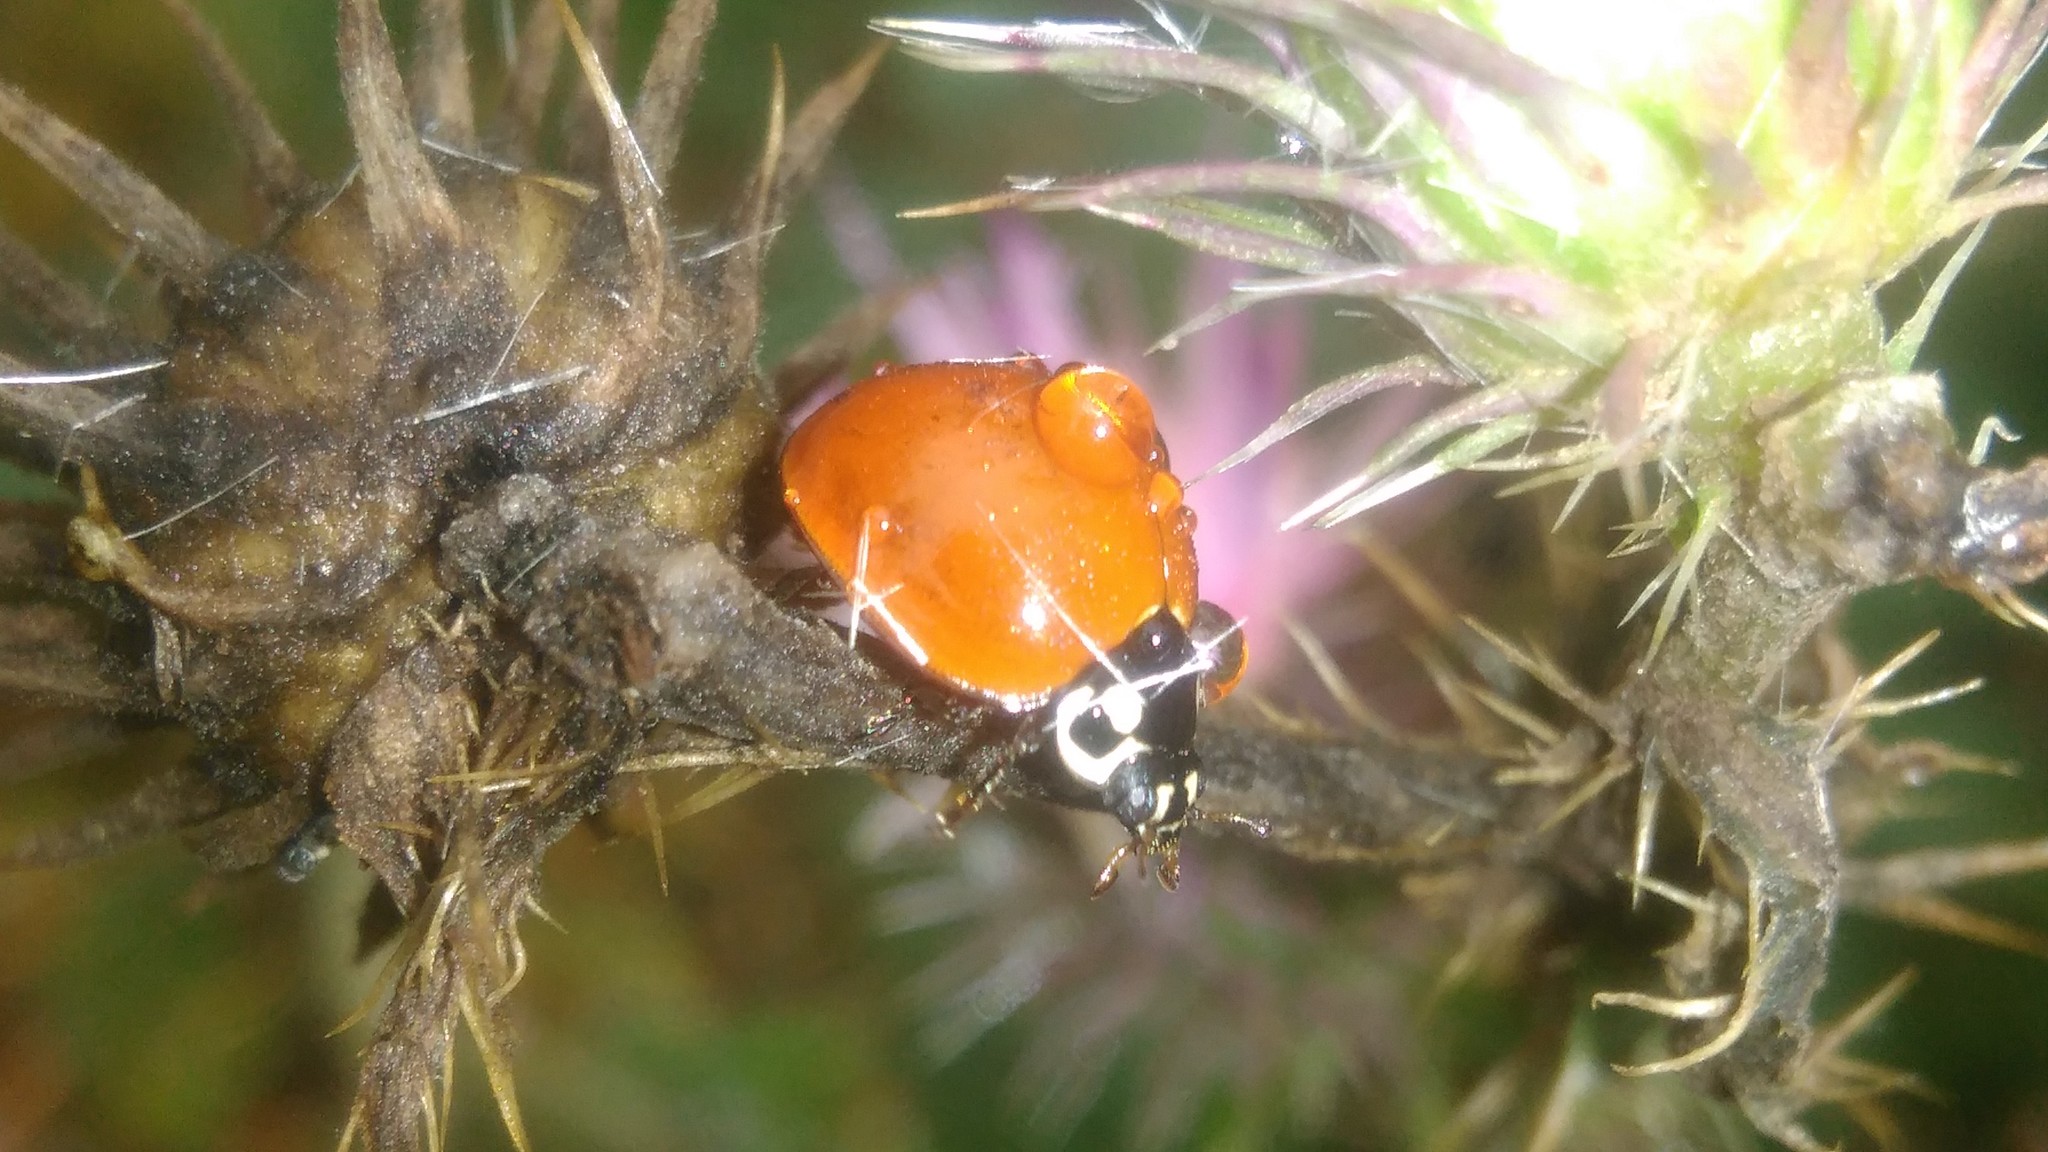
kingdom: Animalia
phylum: Arthropoda
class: Insecta
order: Coleoptera
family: Coccinellidae
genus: Cycloneda
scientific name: Cycloneda sanguinea
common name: Ladybird beetle
